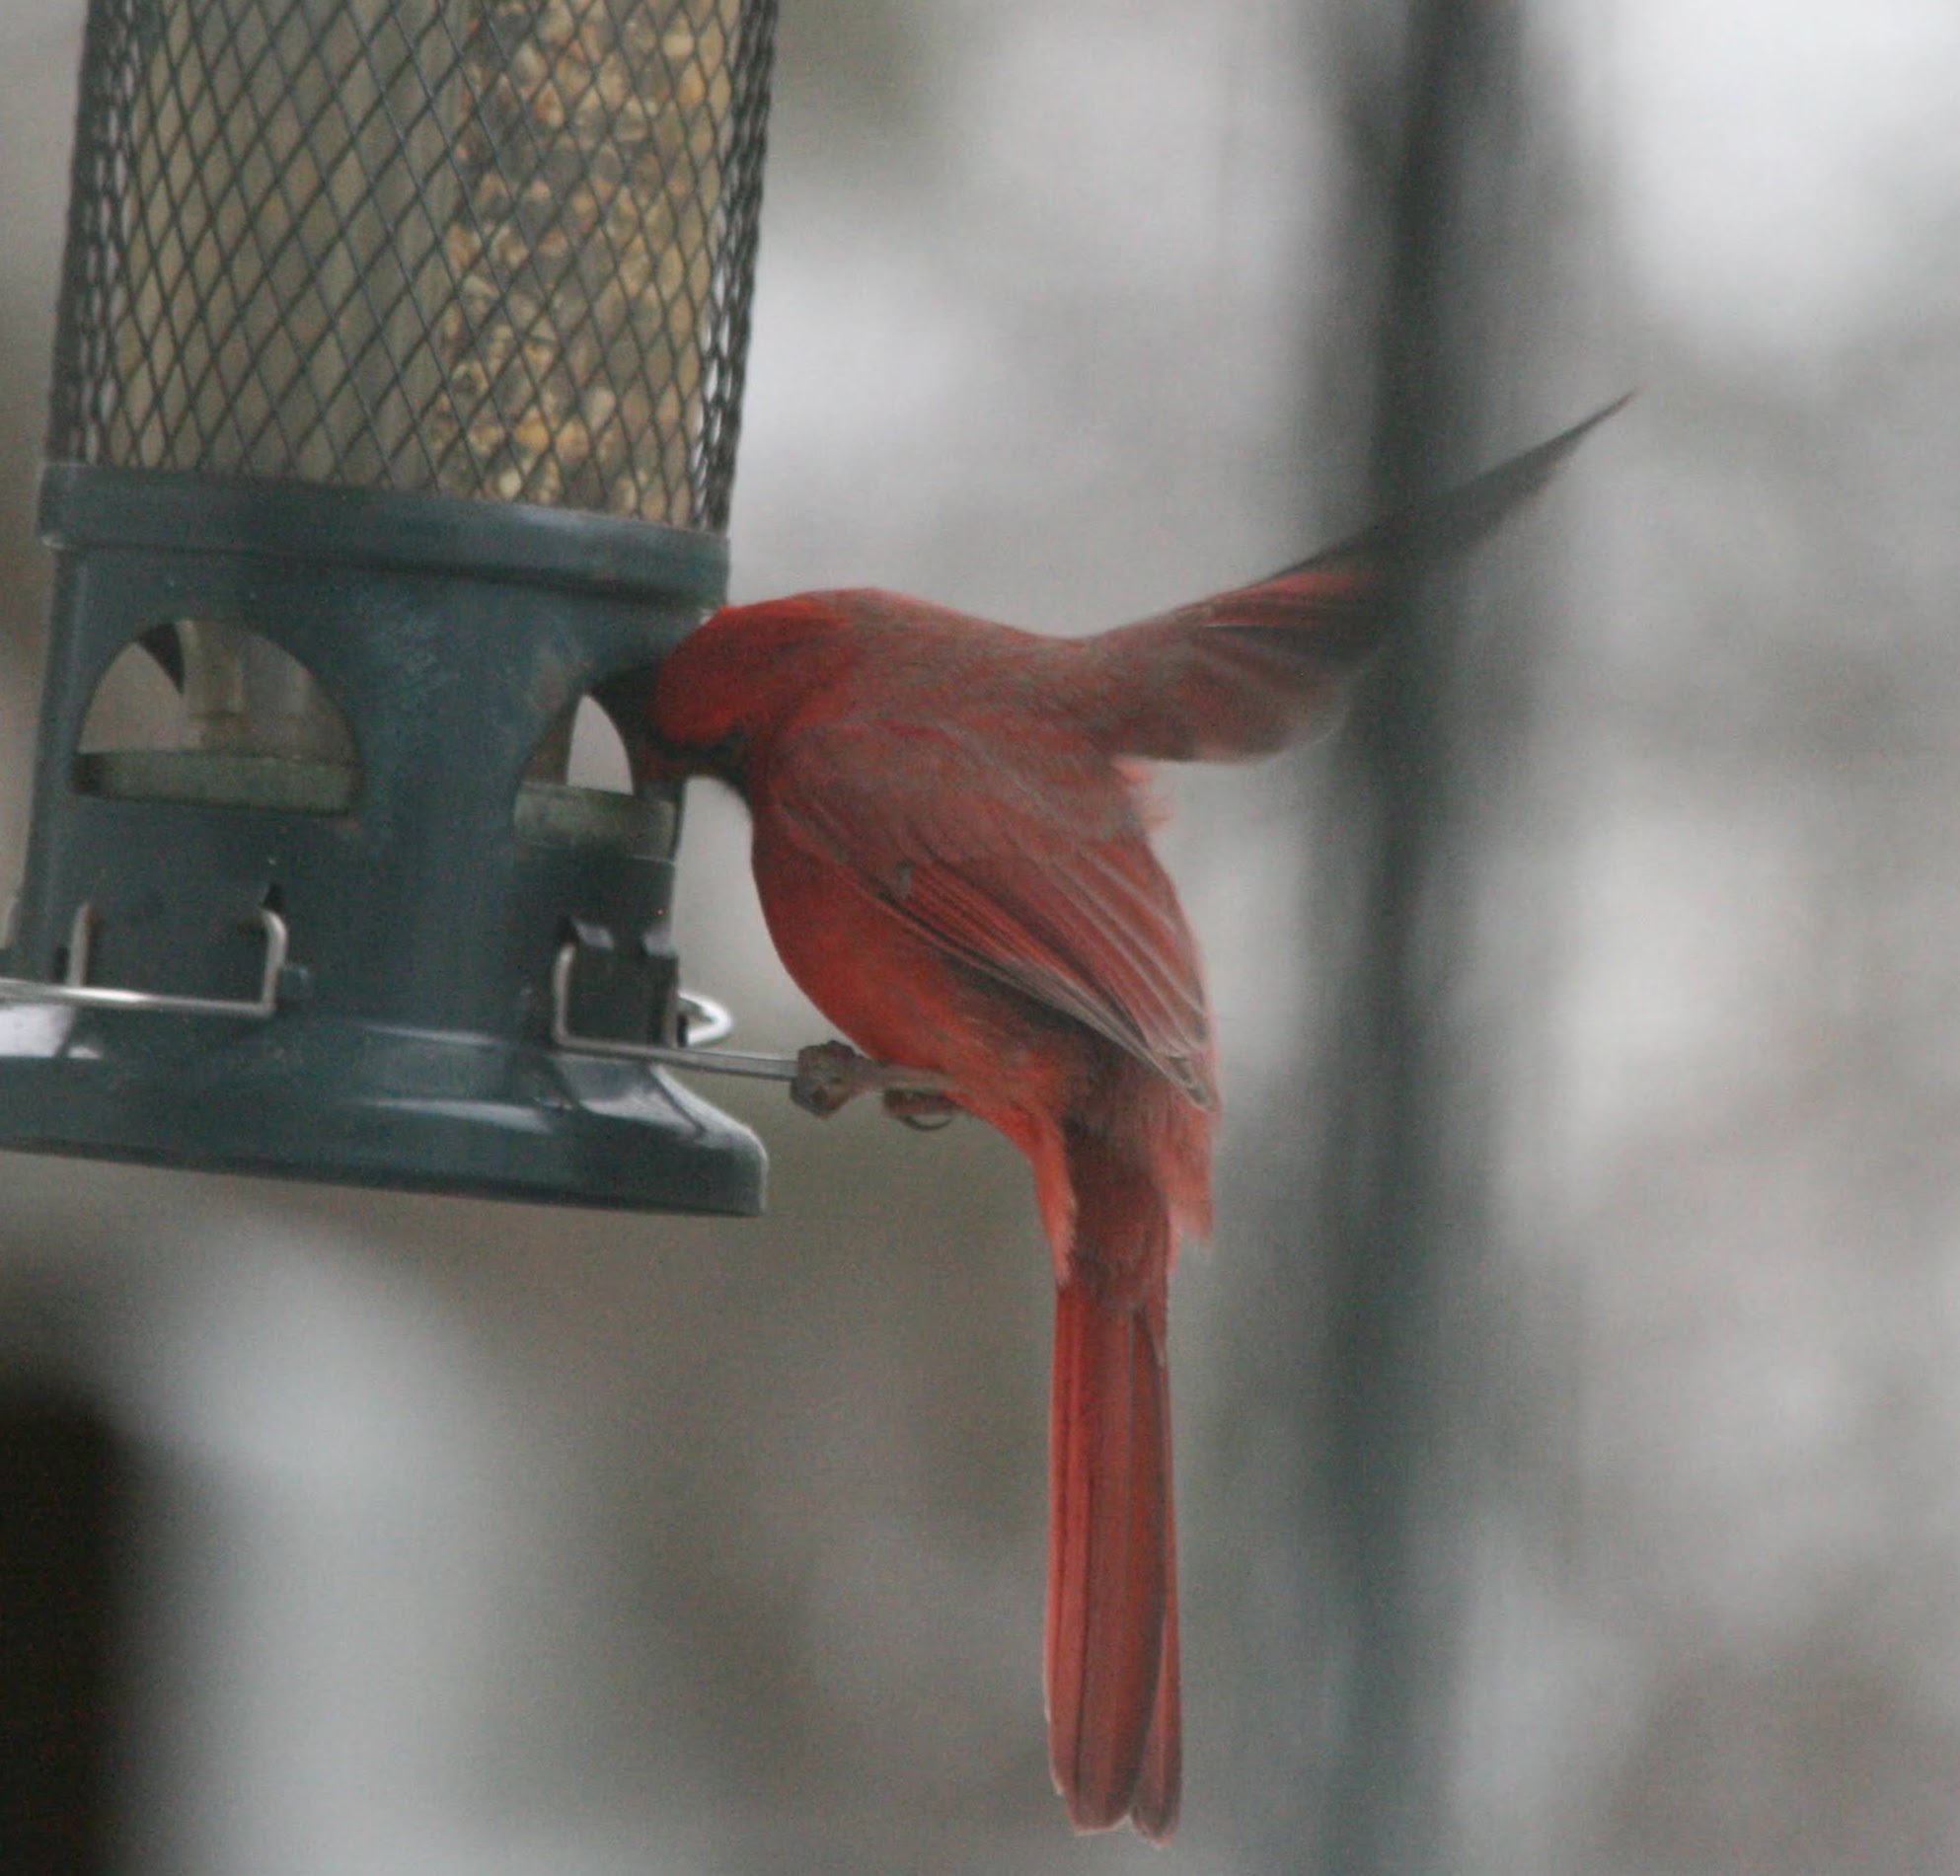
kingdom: Animalia
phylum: Chordata
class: Aves
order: Passeriformes
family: Cardinalidae
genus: Cardinalis
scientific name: Cardinalis cardinalis
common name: Northern cardinal
